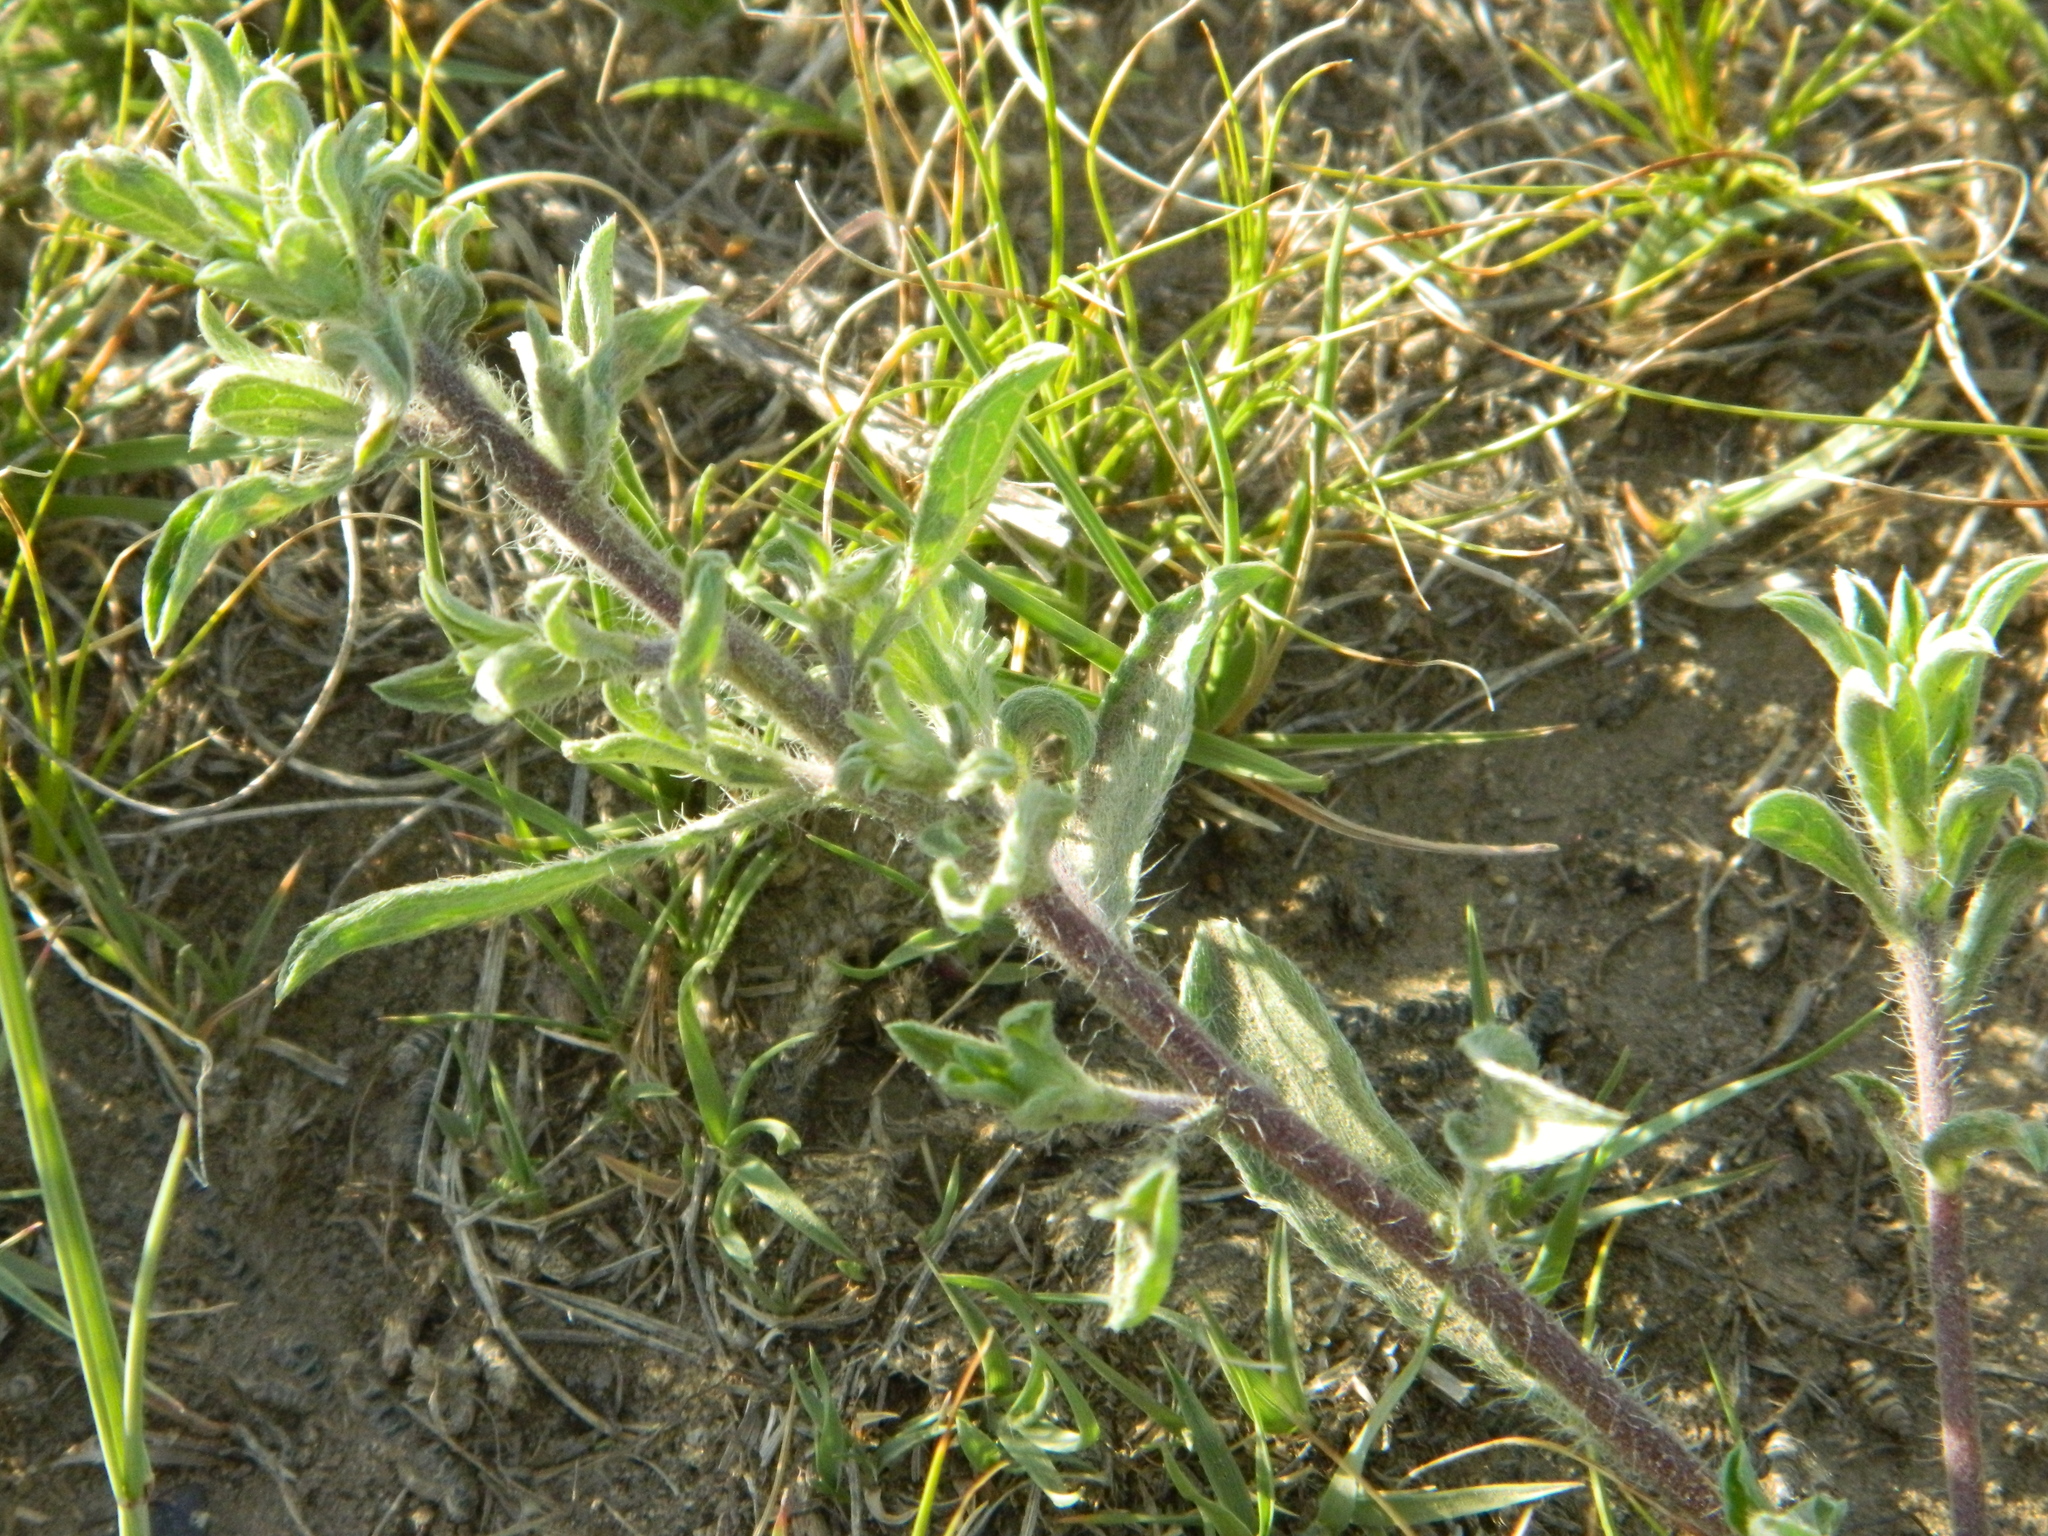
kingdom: Plantae
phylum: Tracheophyta
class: Magnoliopsida
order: Asterales
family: Asteraceae
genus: Heterotheca
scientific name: Heterotheca villosa
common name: Hairy false goldenaster
